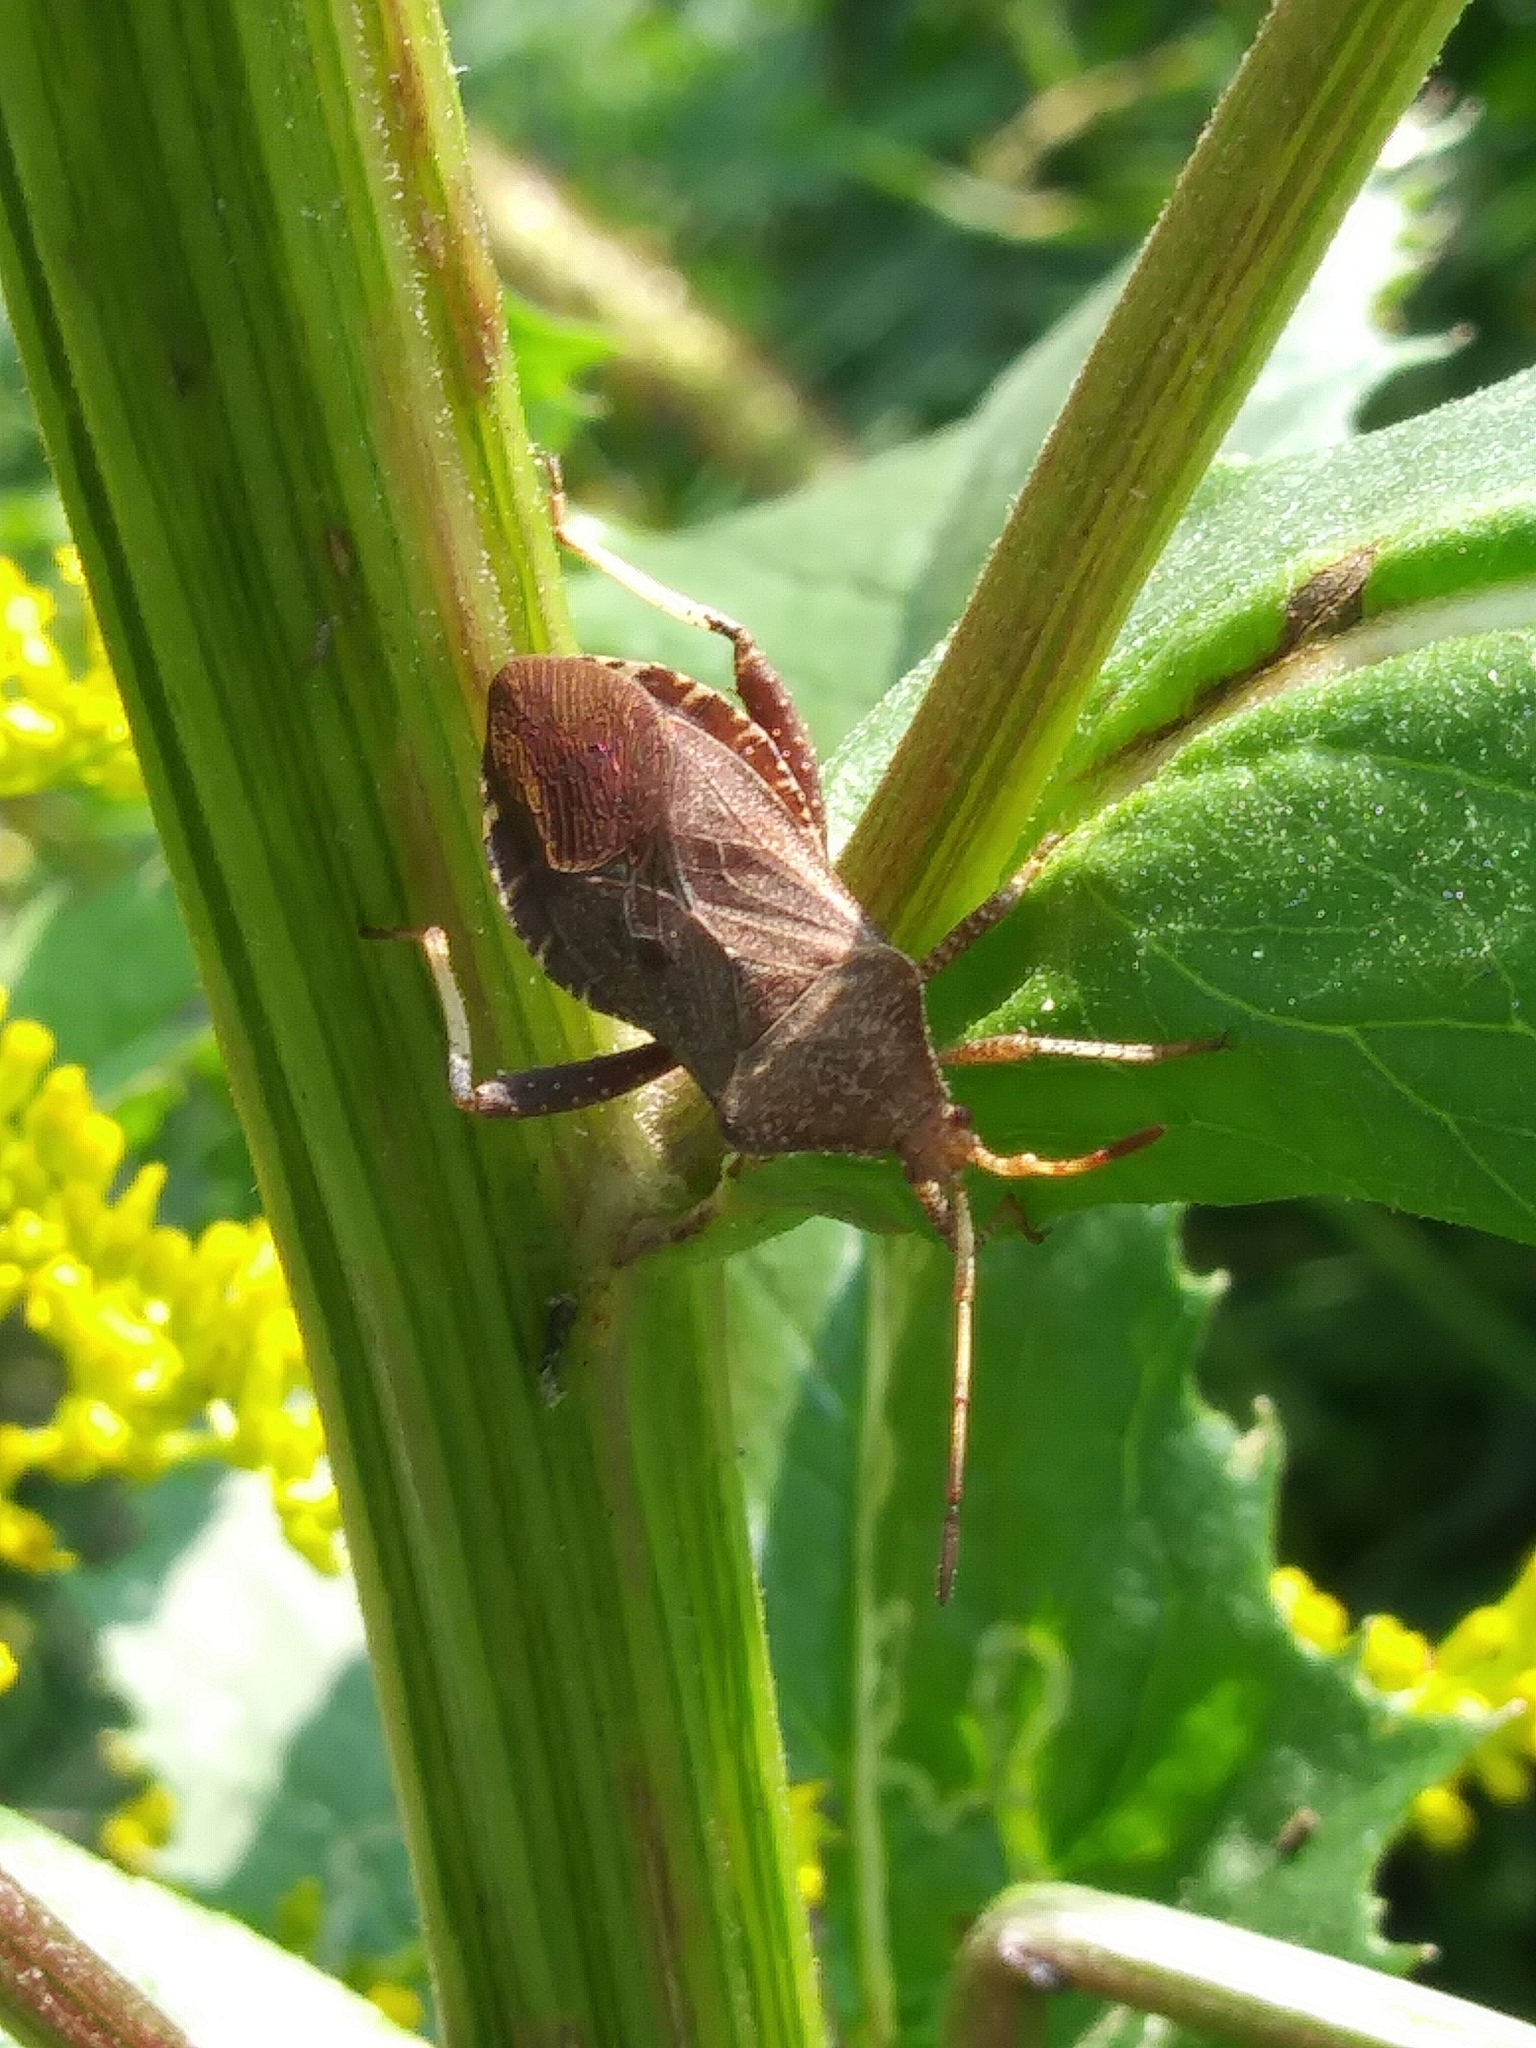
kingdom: Animalia
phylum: Arthropoda
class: Insecta
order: Hemiptera
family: Coreidae
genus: Euthochtha
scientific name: Euthochtha galeator
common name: Helmeted squash bug
